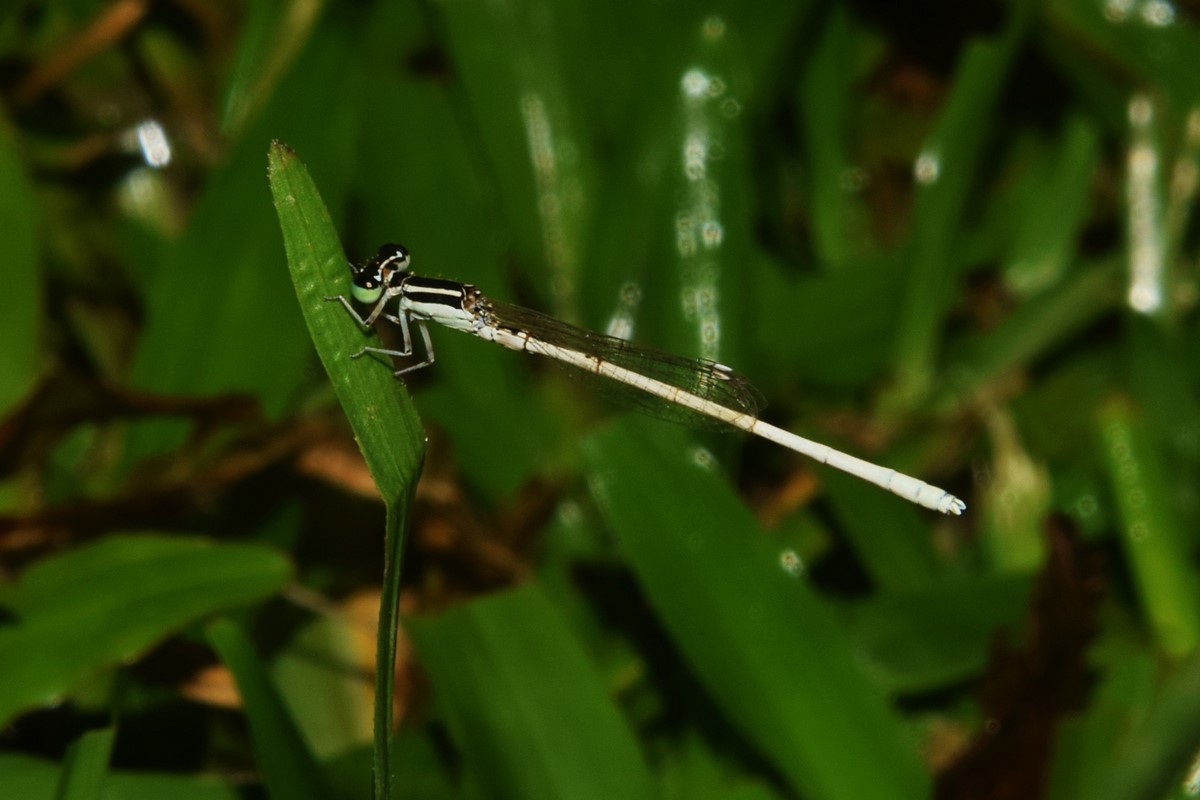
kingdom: Animalia
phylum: Arthropoda
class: Insecta
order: Odonata
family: Coenagrionidae
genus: Agriocnemis
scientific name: Agriocnemis lacteola
